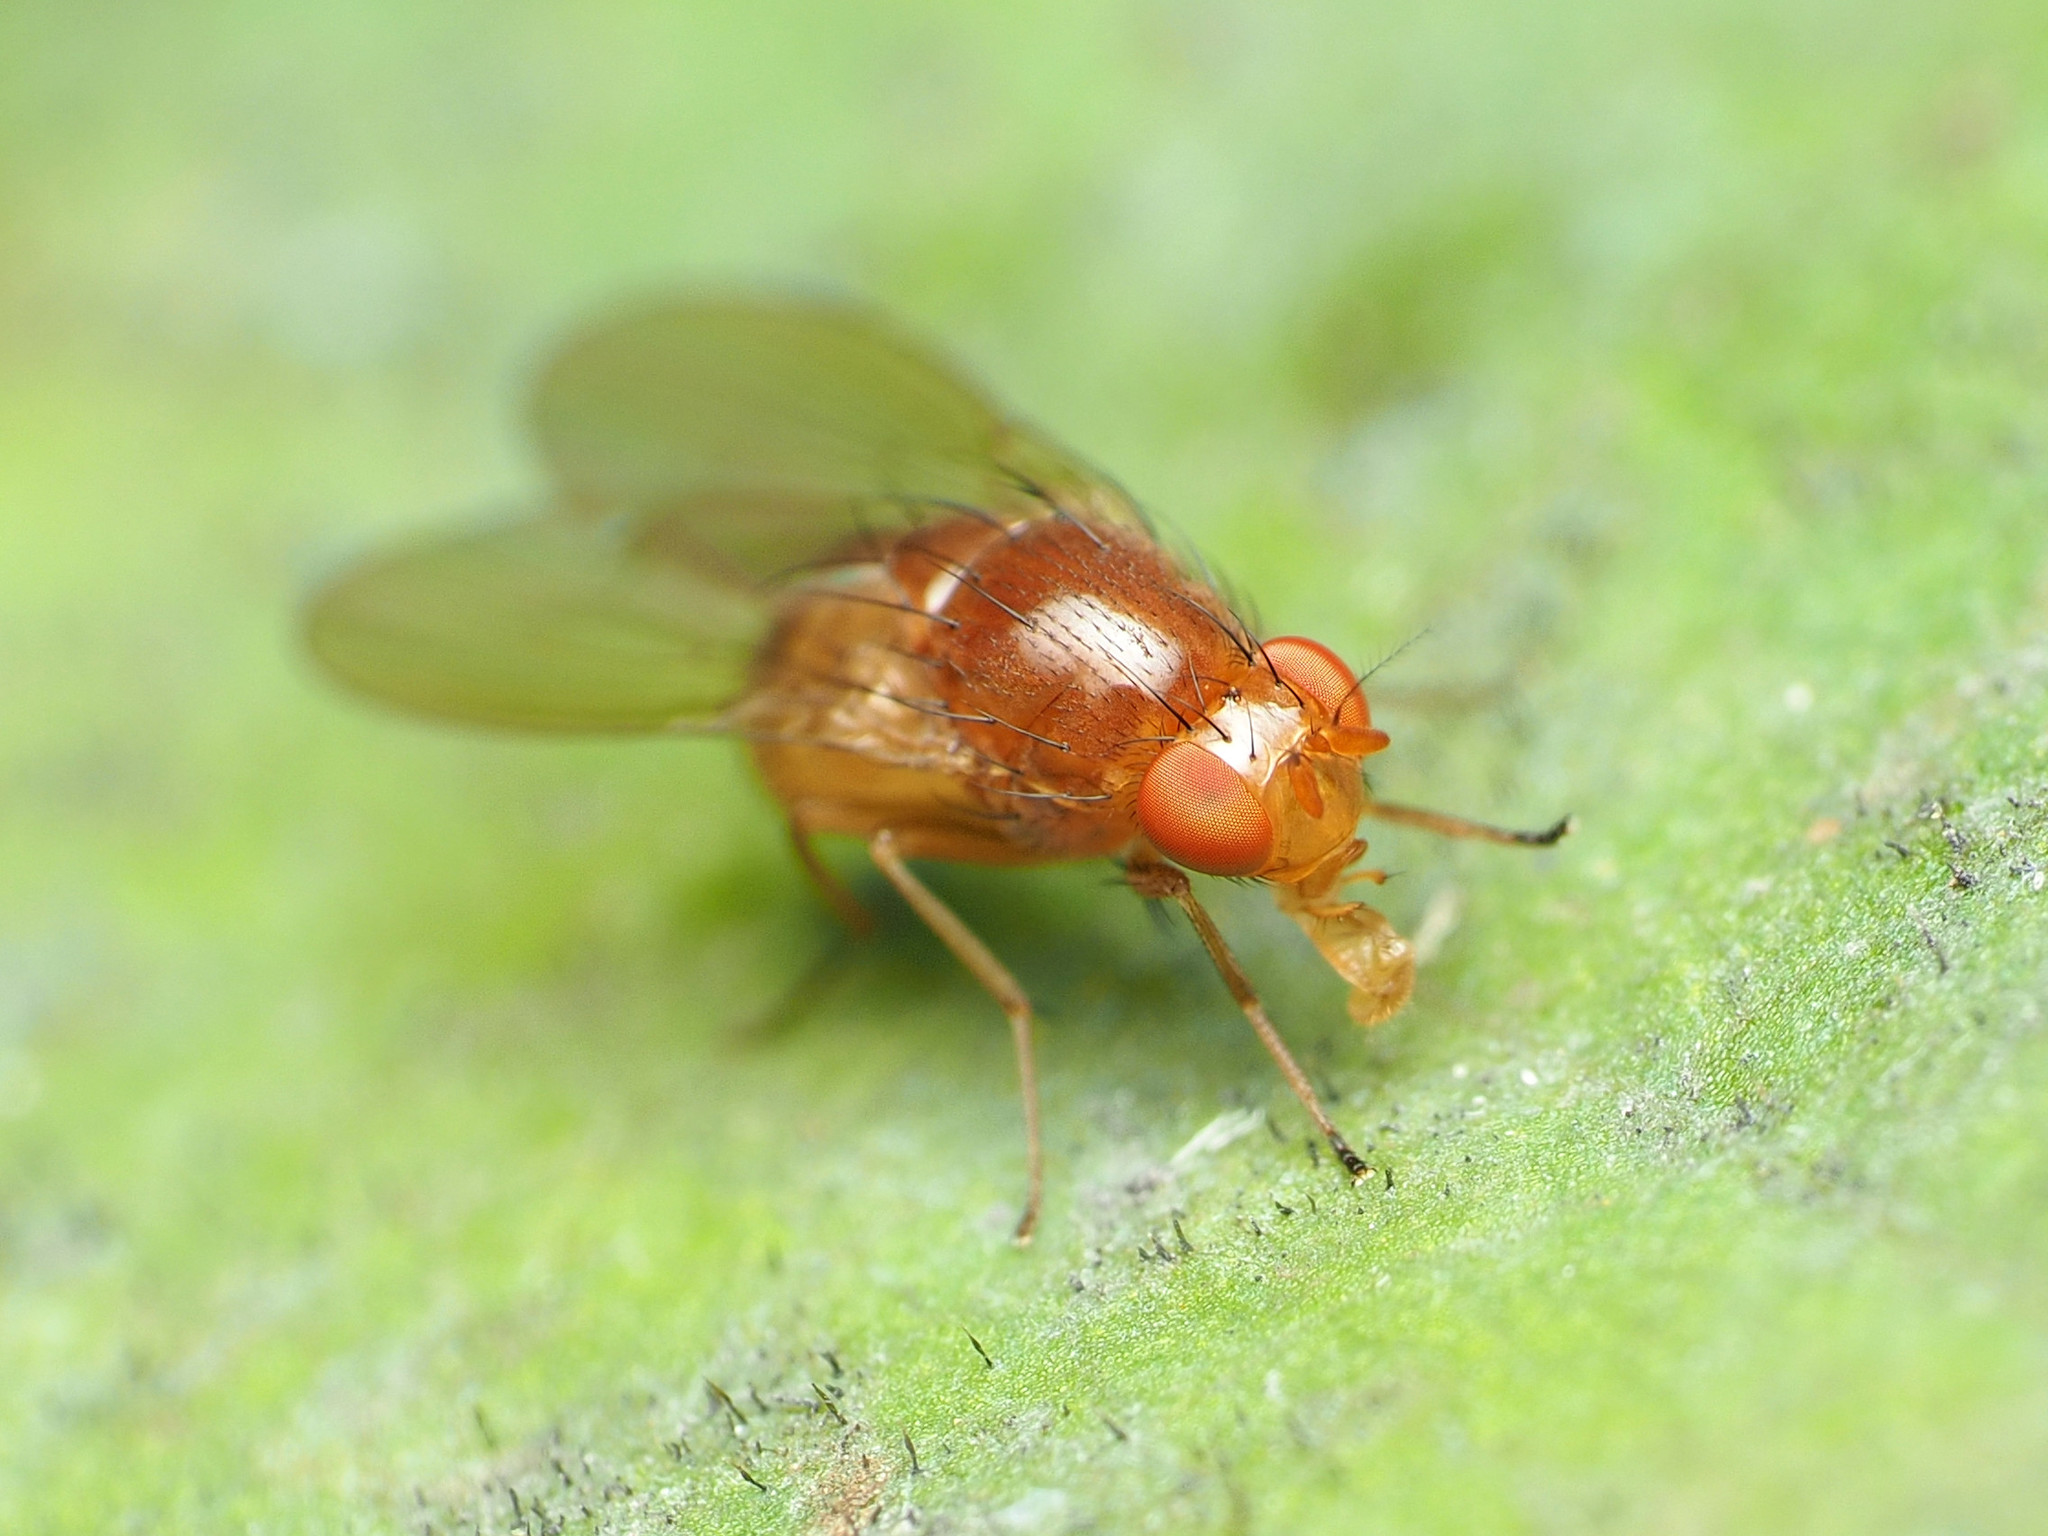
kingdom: Animalia
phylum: Arthropoda
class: Insecta
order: Diptera
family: Lauxaniidae
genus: Physoclypeus
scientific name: Physoclypeus coquilletti
